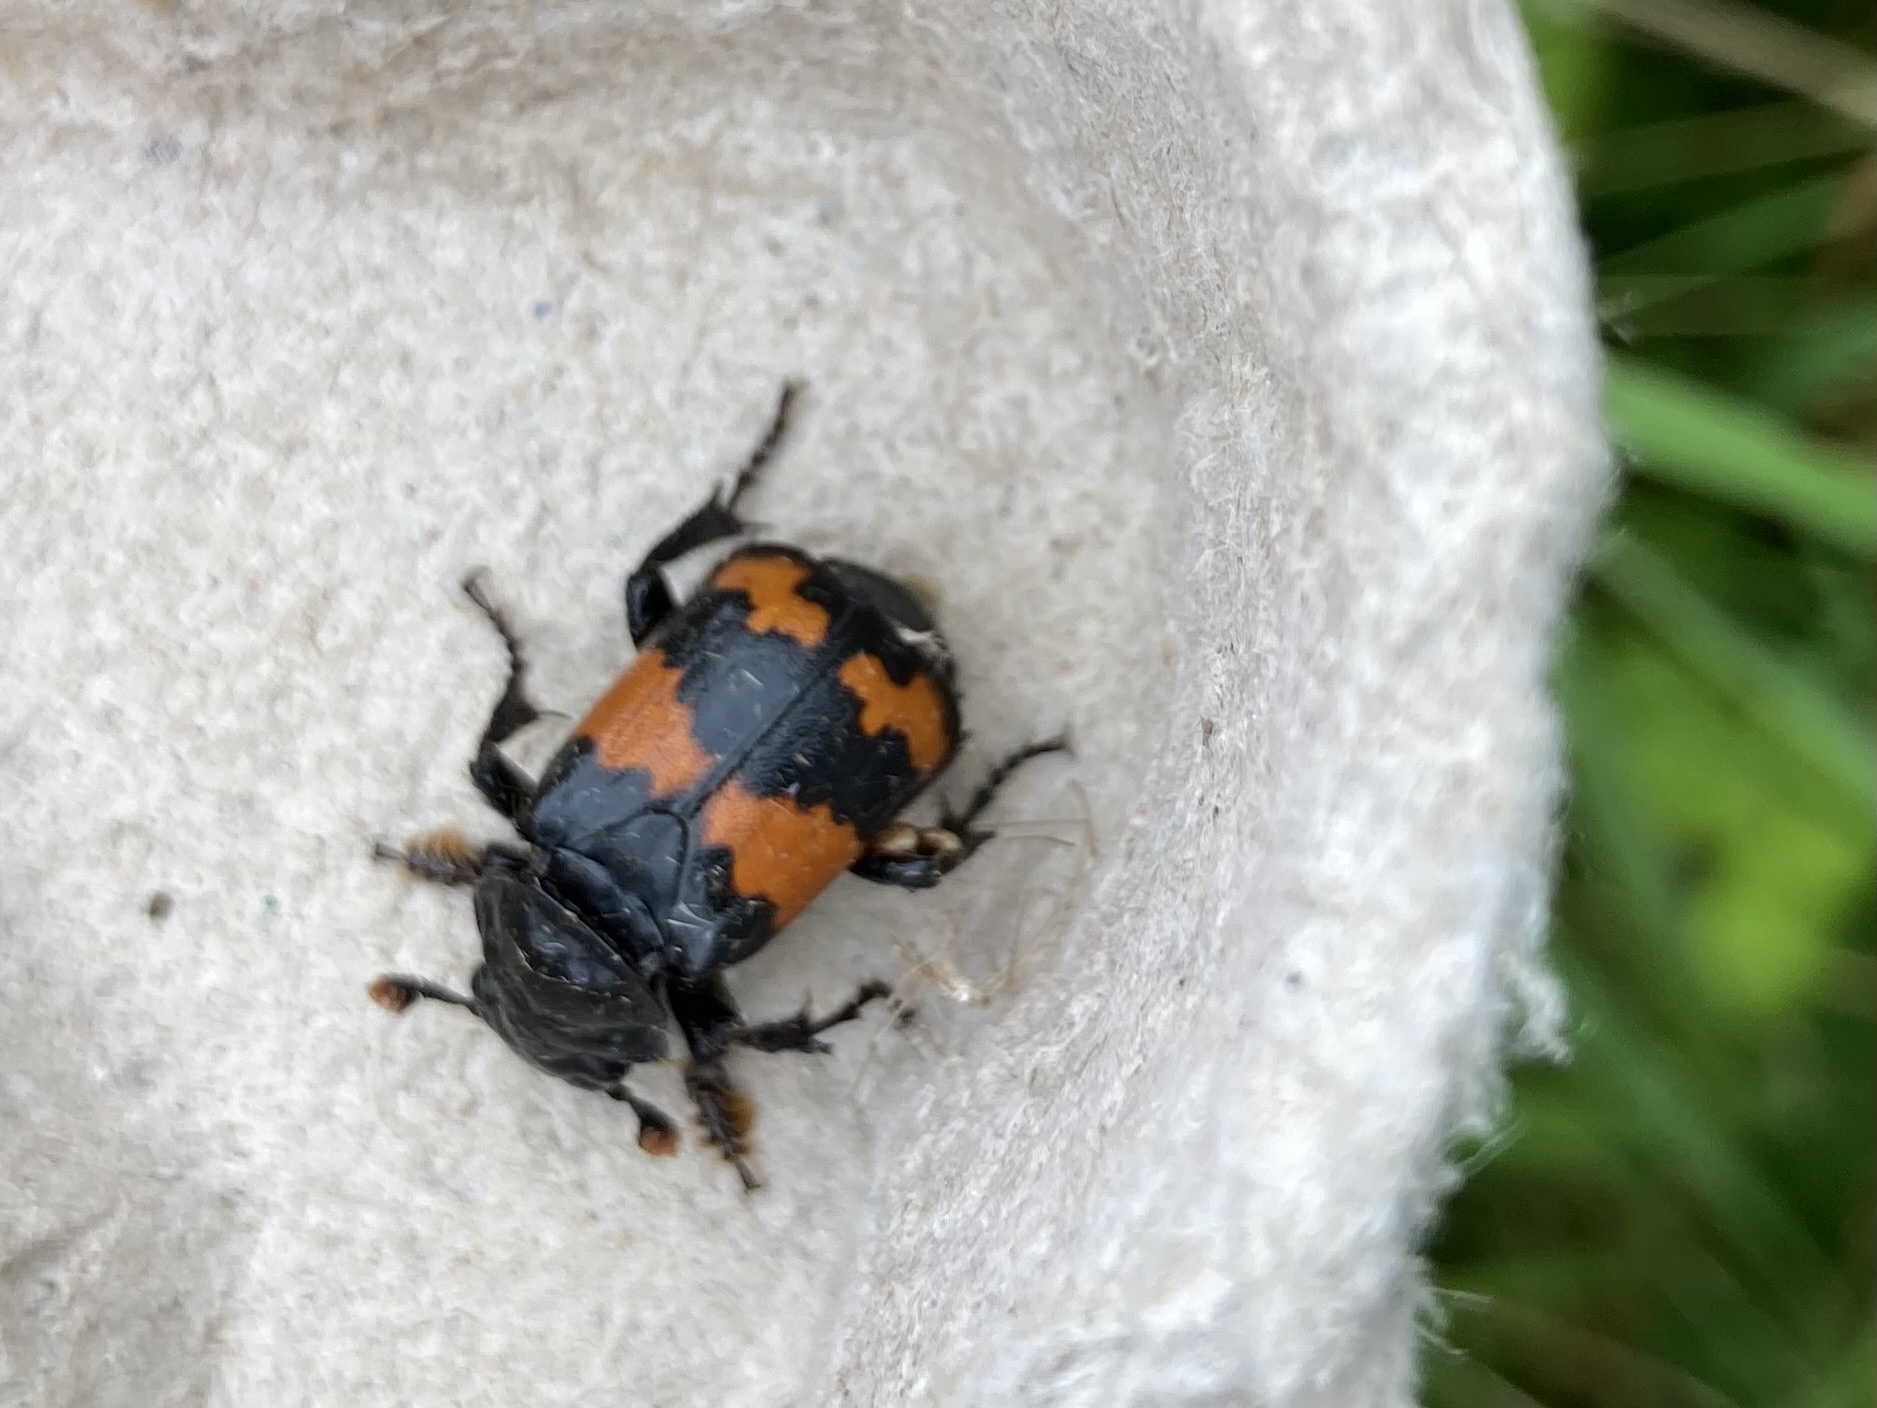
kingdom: Animalia
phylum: Arthropoda
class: Insecta
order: Coleoptera
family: Staphylinidae
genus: Nicrophorus
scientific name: Nicrophorus investigator
